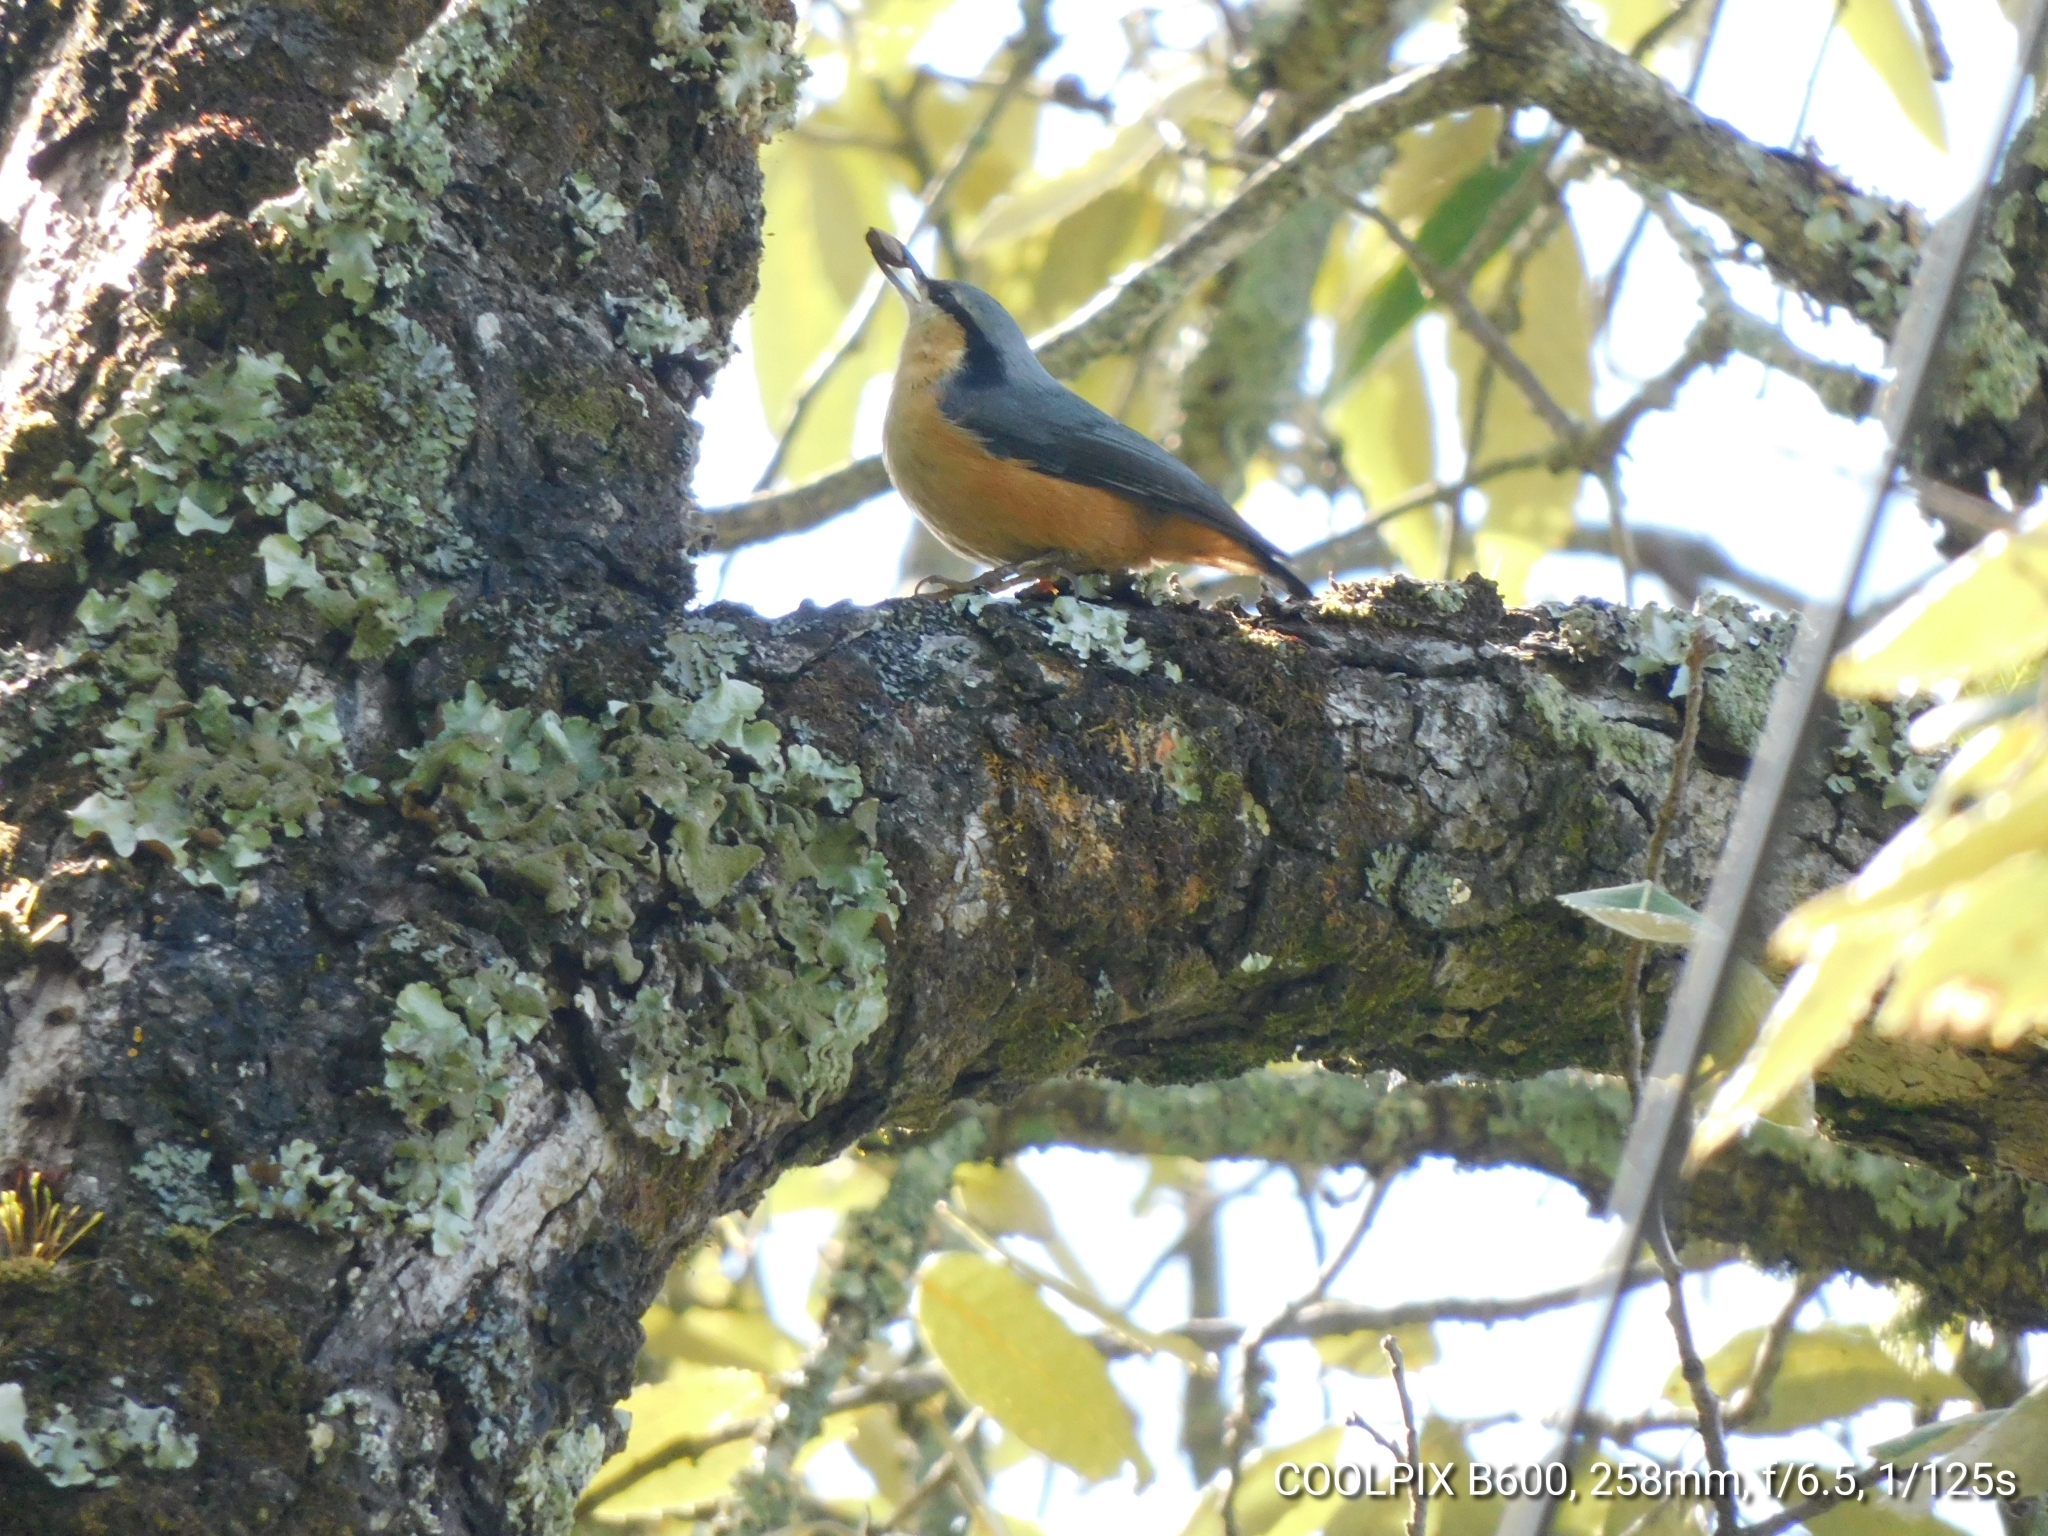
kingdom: Animalia
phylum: Chordata
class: Aves
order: Passeriformes
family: Sittidae
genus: Sitta
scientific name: Sitta himalayensis
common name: White-tailed nuthatch
